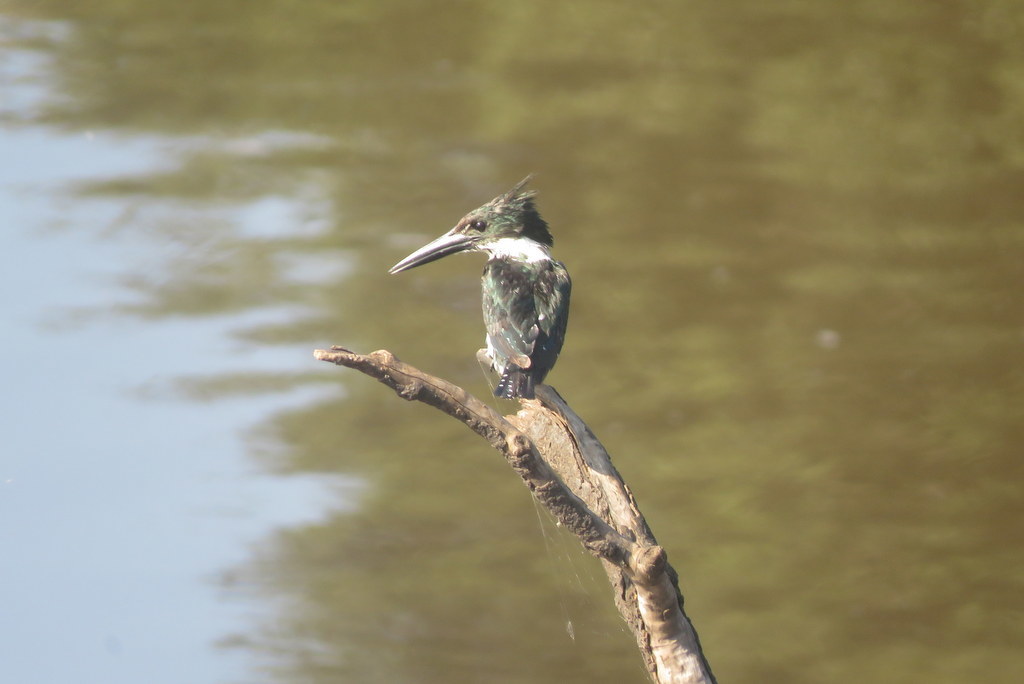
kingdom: Animalia
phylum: Chordata
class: Aves
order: Coraciiformes
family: Alcedinidae
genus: Chloroceryle
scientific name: Chloroceryle amazona
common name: Amazon kingfisher
